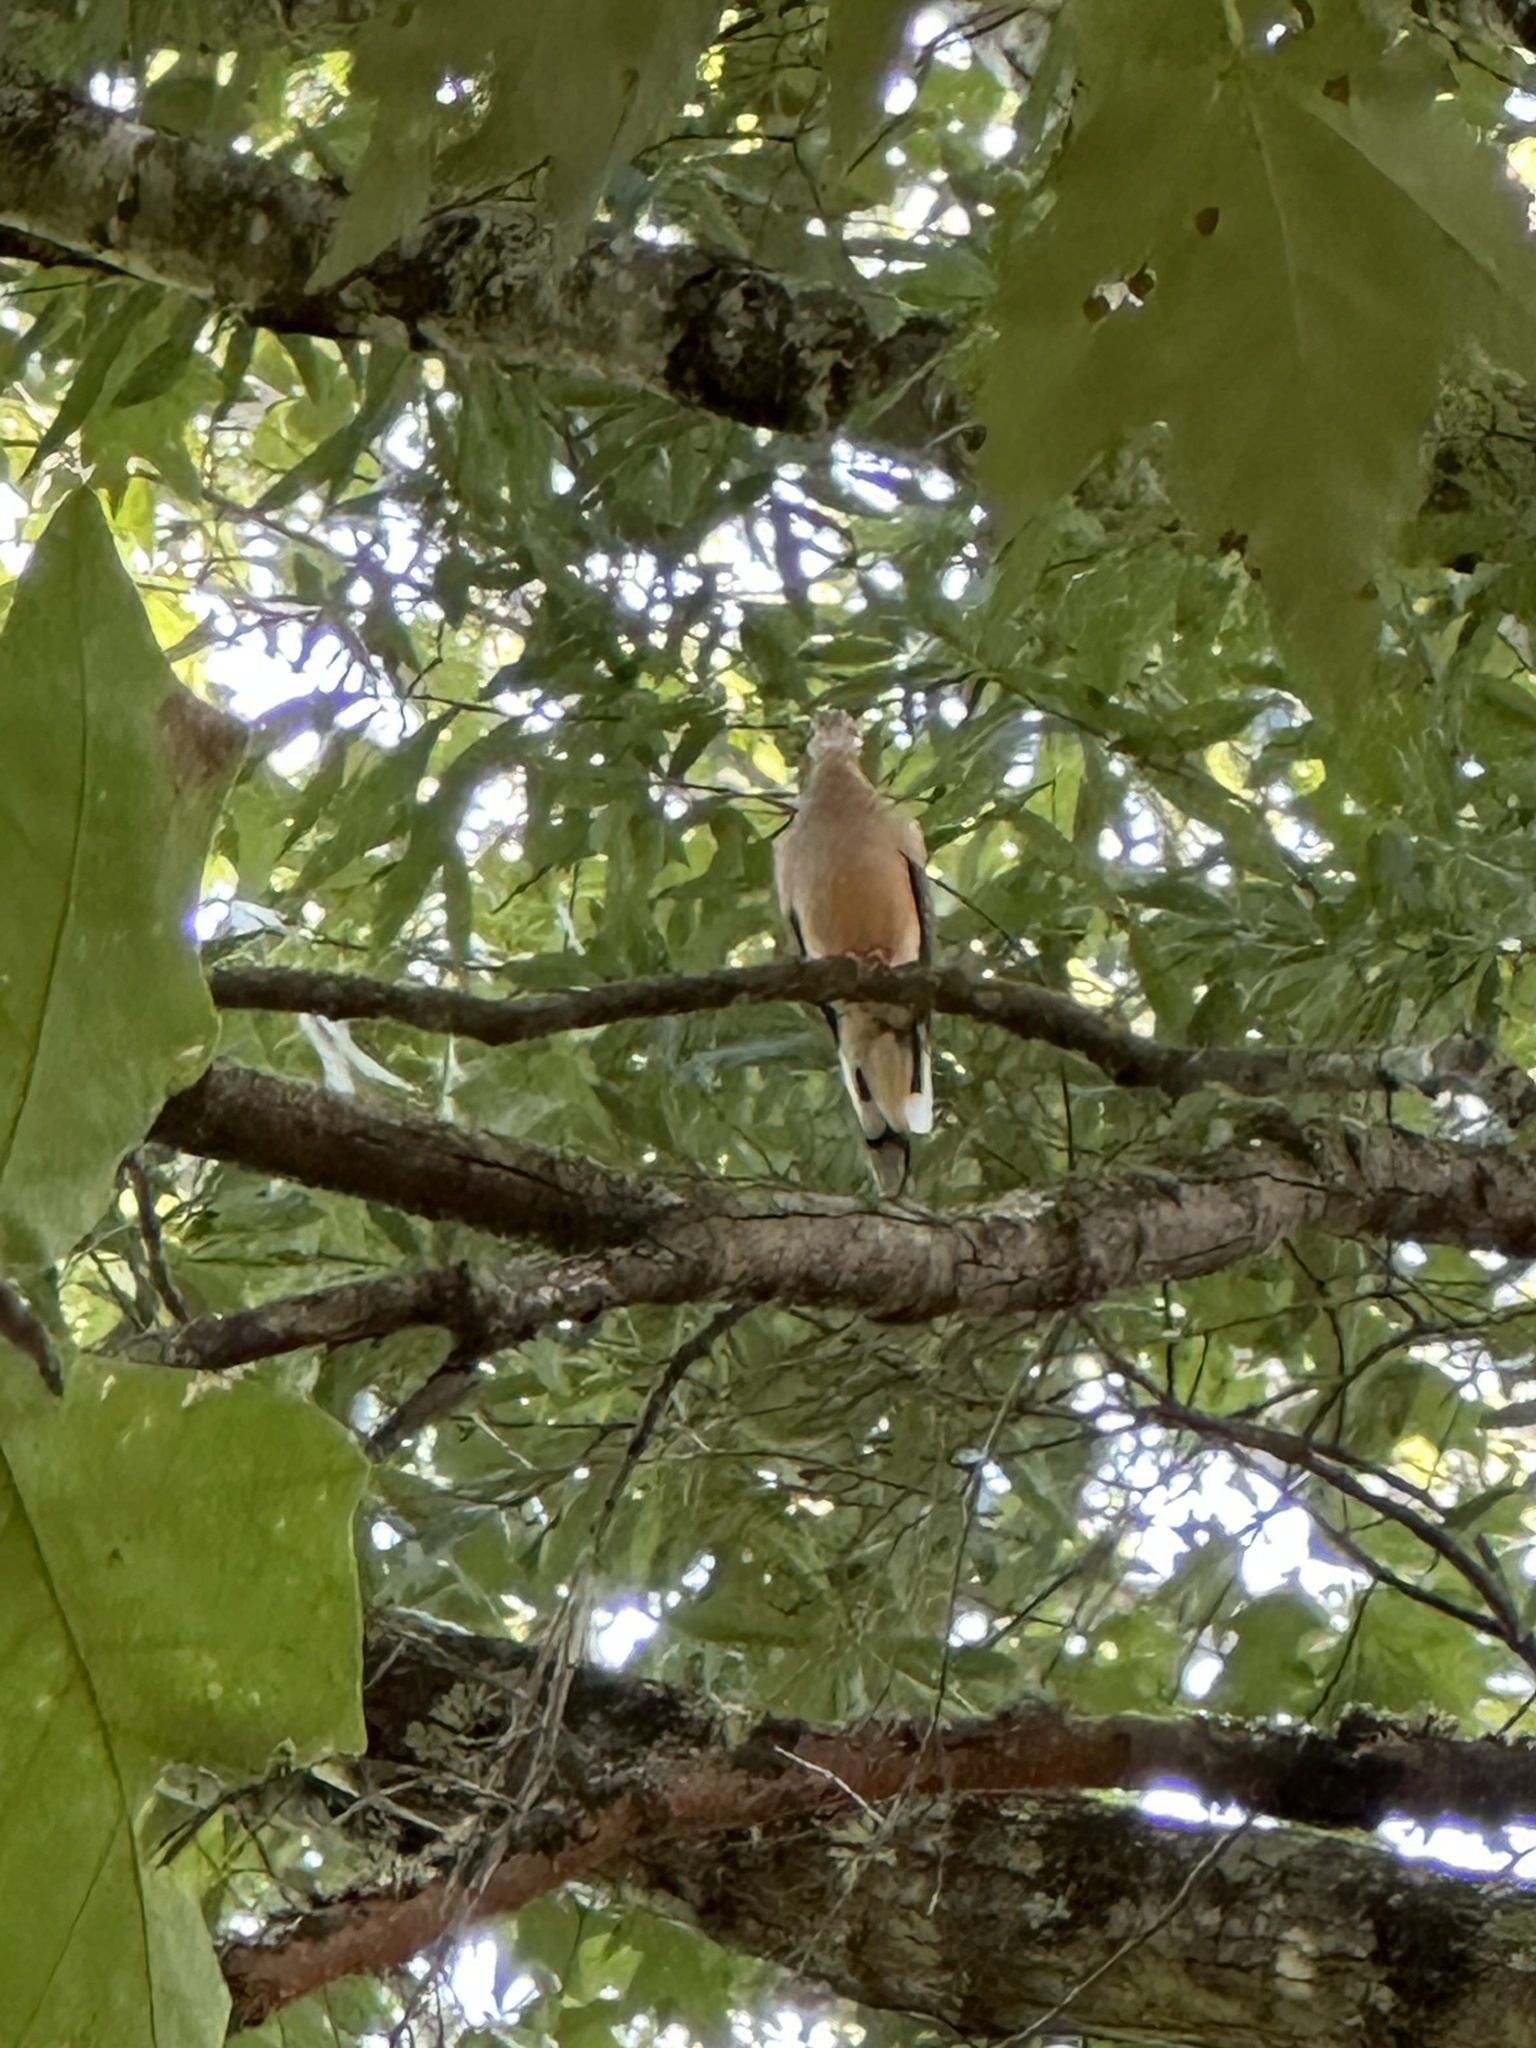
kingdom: Animalia
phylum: Chordata
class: Aves
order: Columbiformes
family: Columbidae
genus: Zenaida
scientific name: Zenaida macroura
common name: Mourning dove
